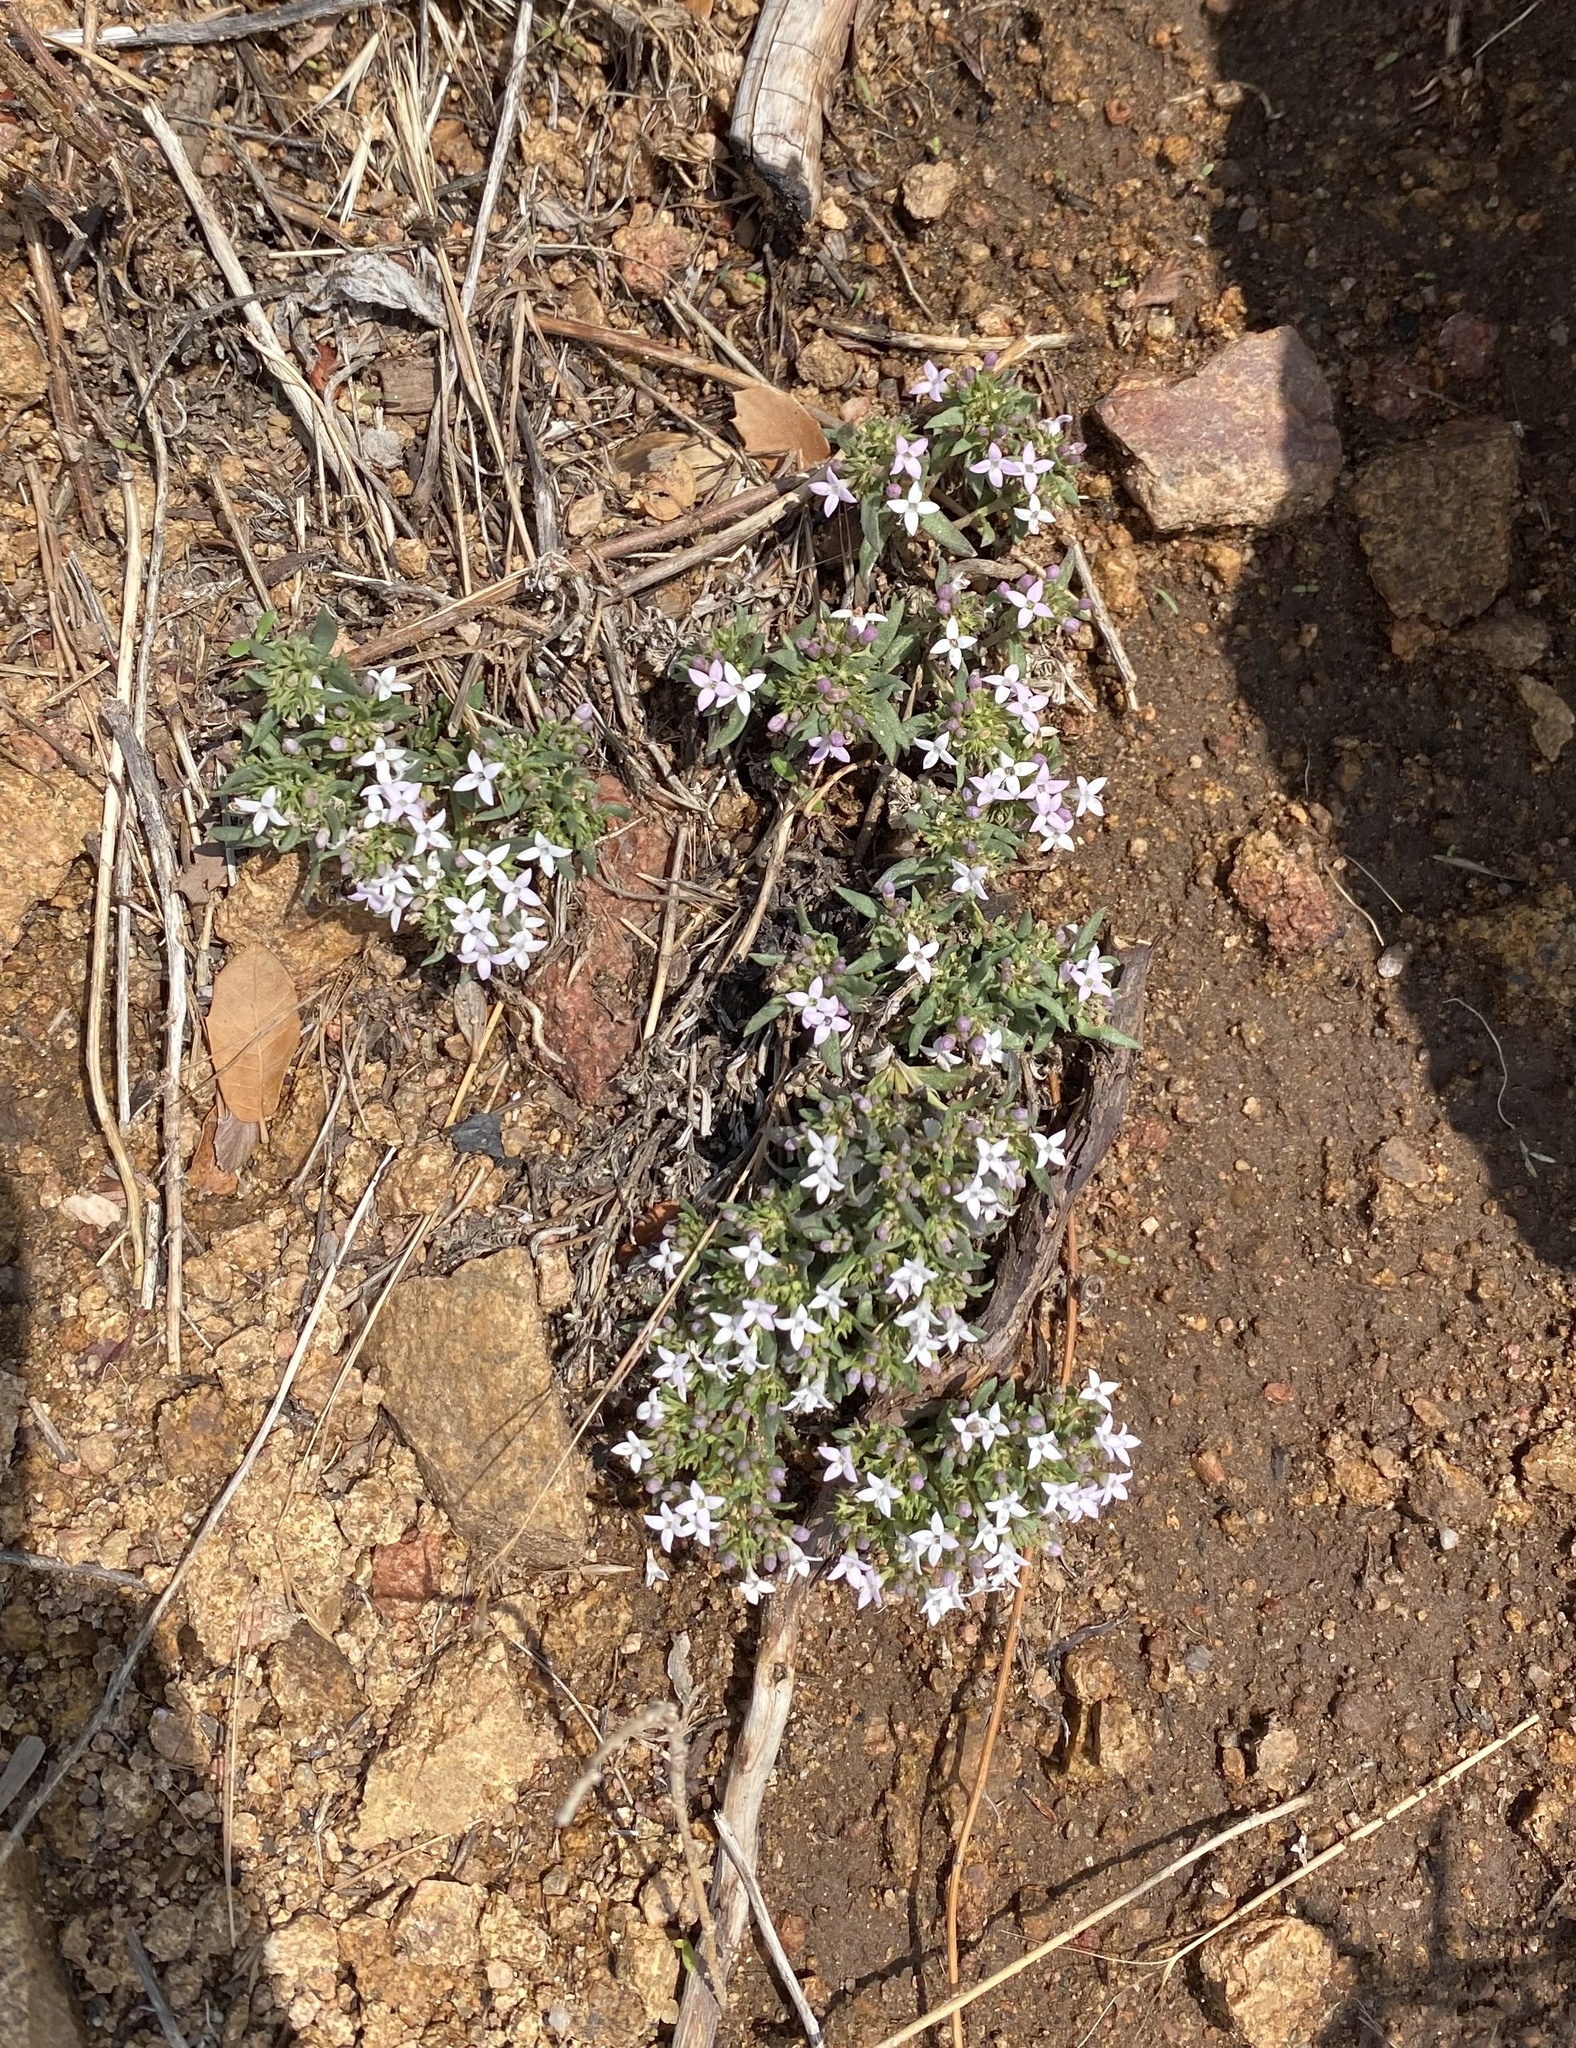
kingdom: Plantae
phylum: Tracheophyta
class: Magnoliopsida
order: Gentianales
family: Rubiaceae
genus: Houstonia
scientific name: Houstonia wrightii
